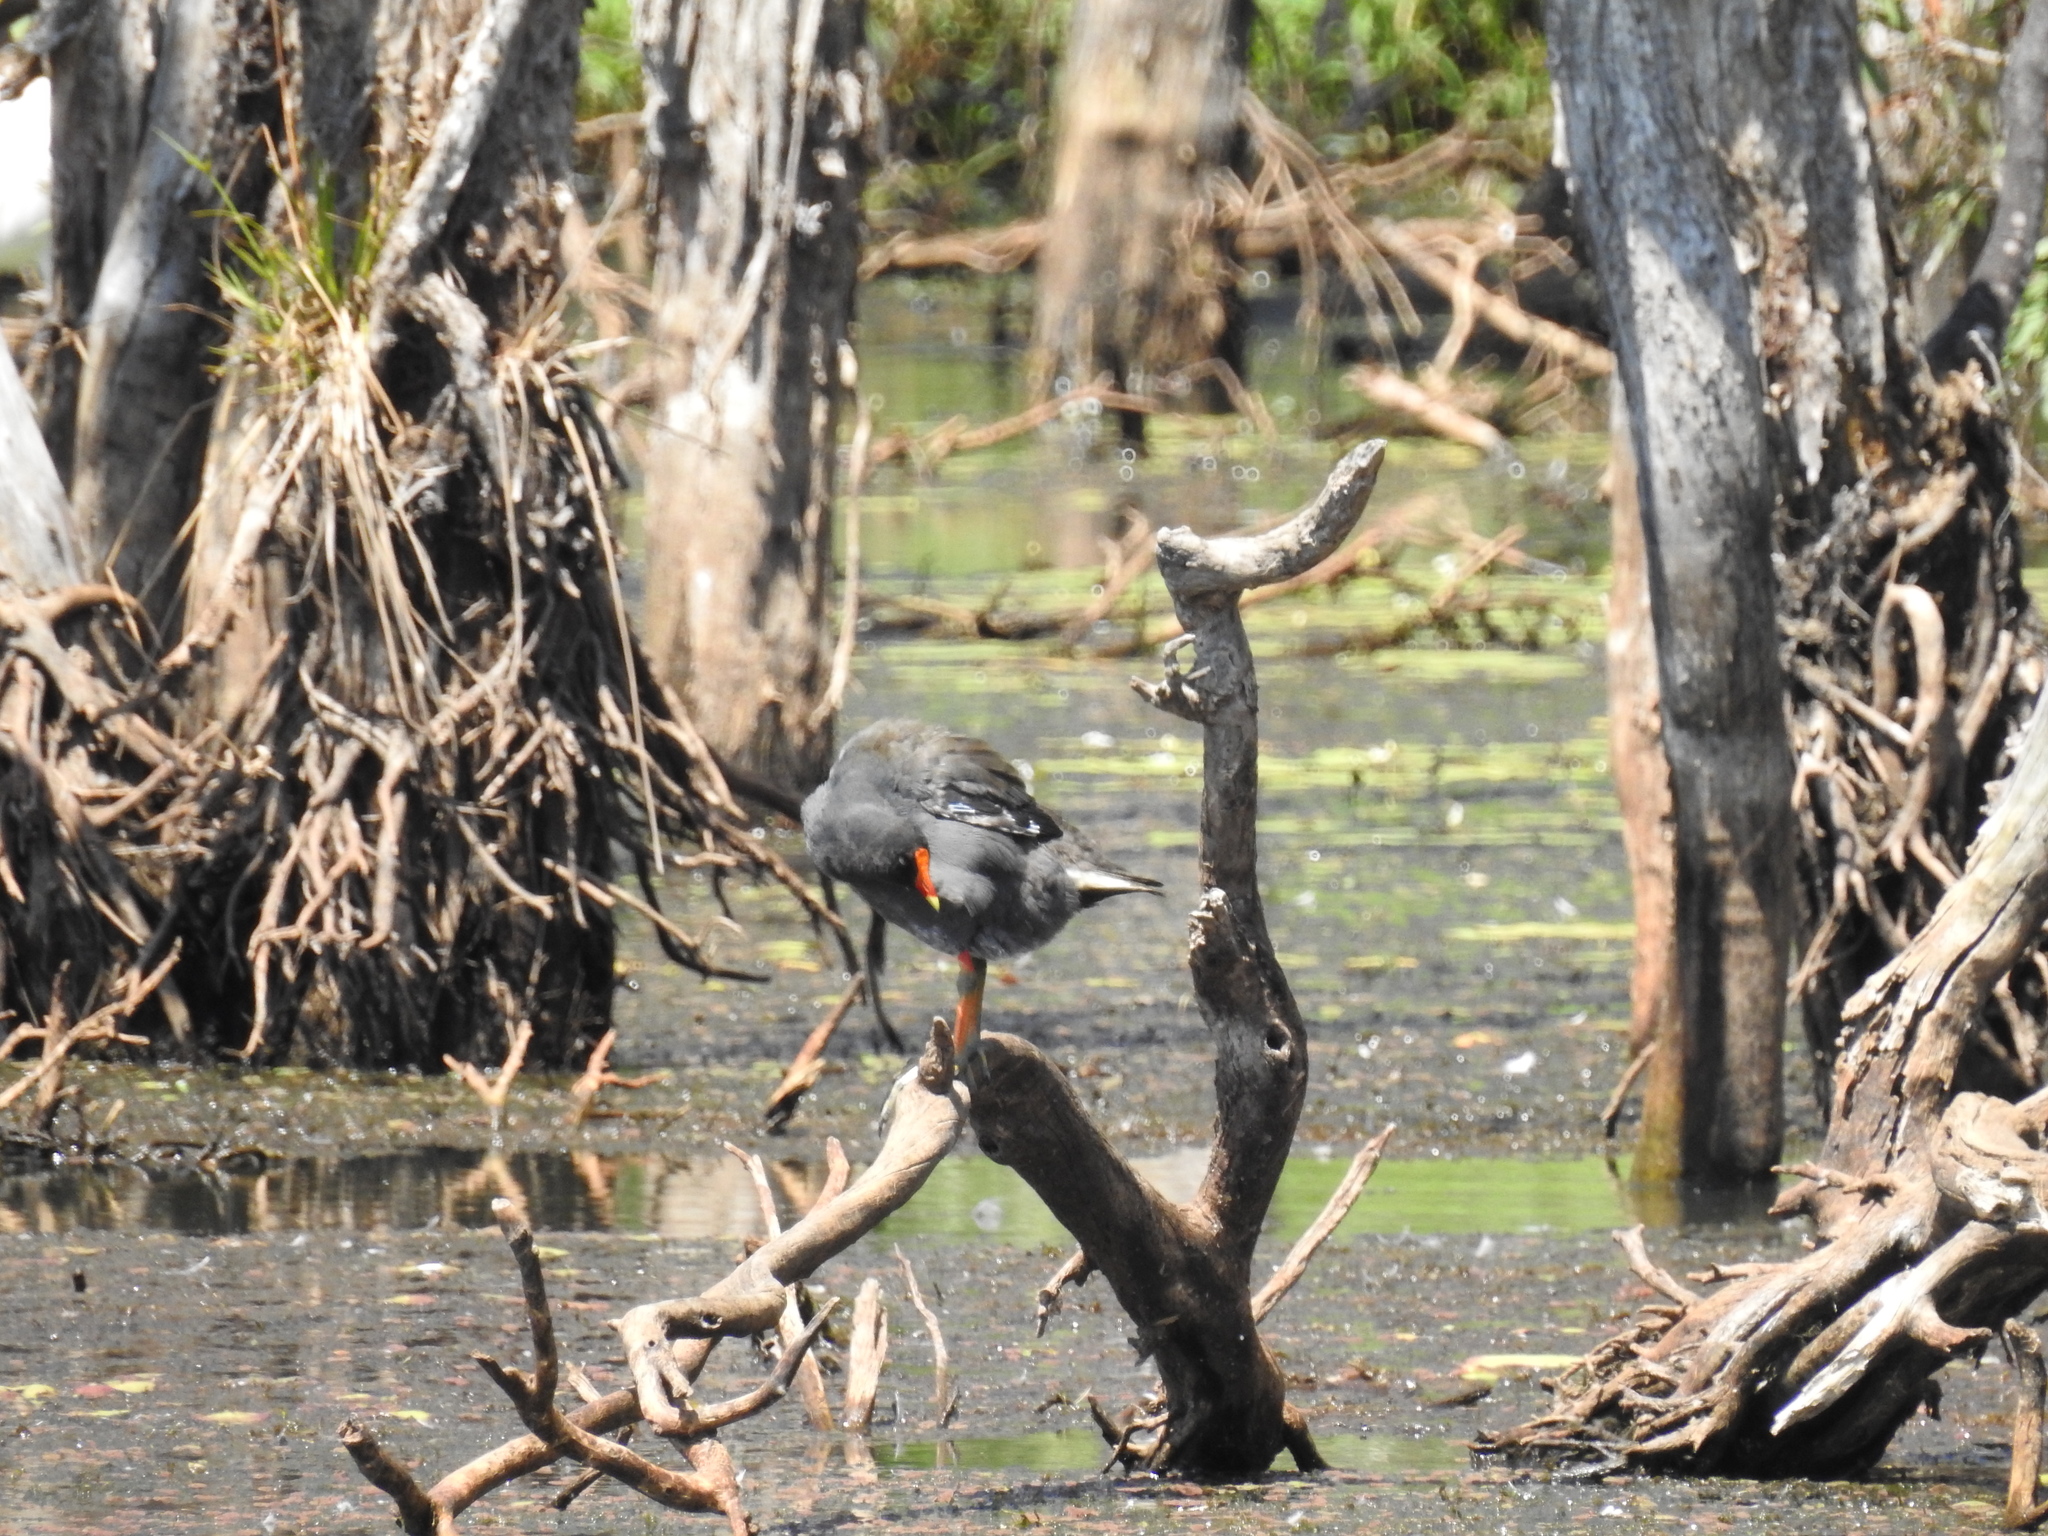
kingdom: Animalia
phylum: Chordata
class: Aves
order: Gruiformes
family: Rallidae
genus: Gallinula
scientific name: Gallinula tenebrosa
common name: Dusky moorhen
